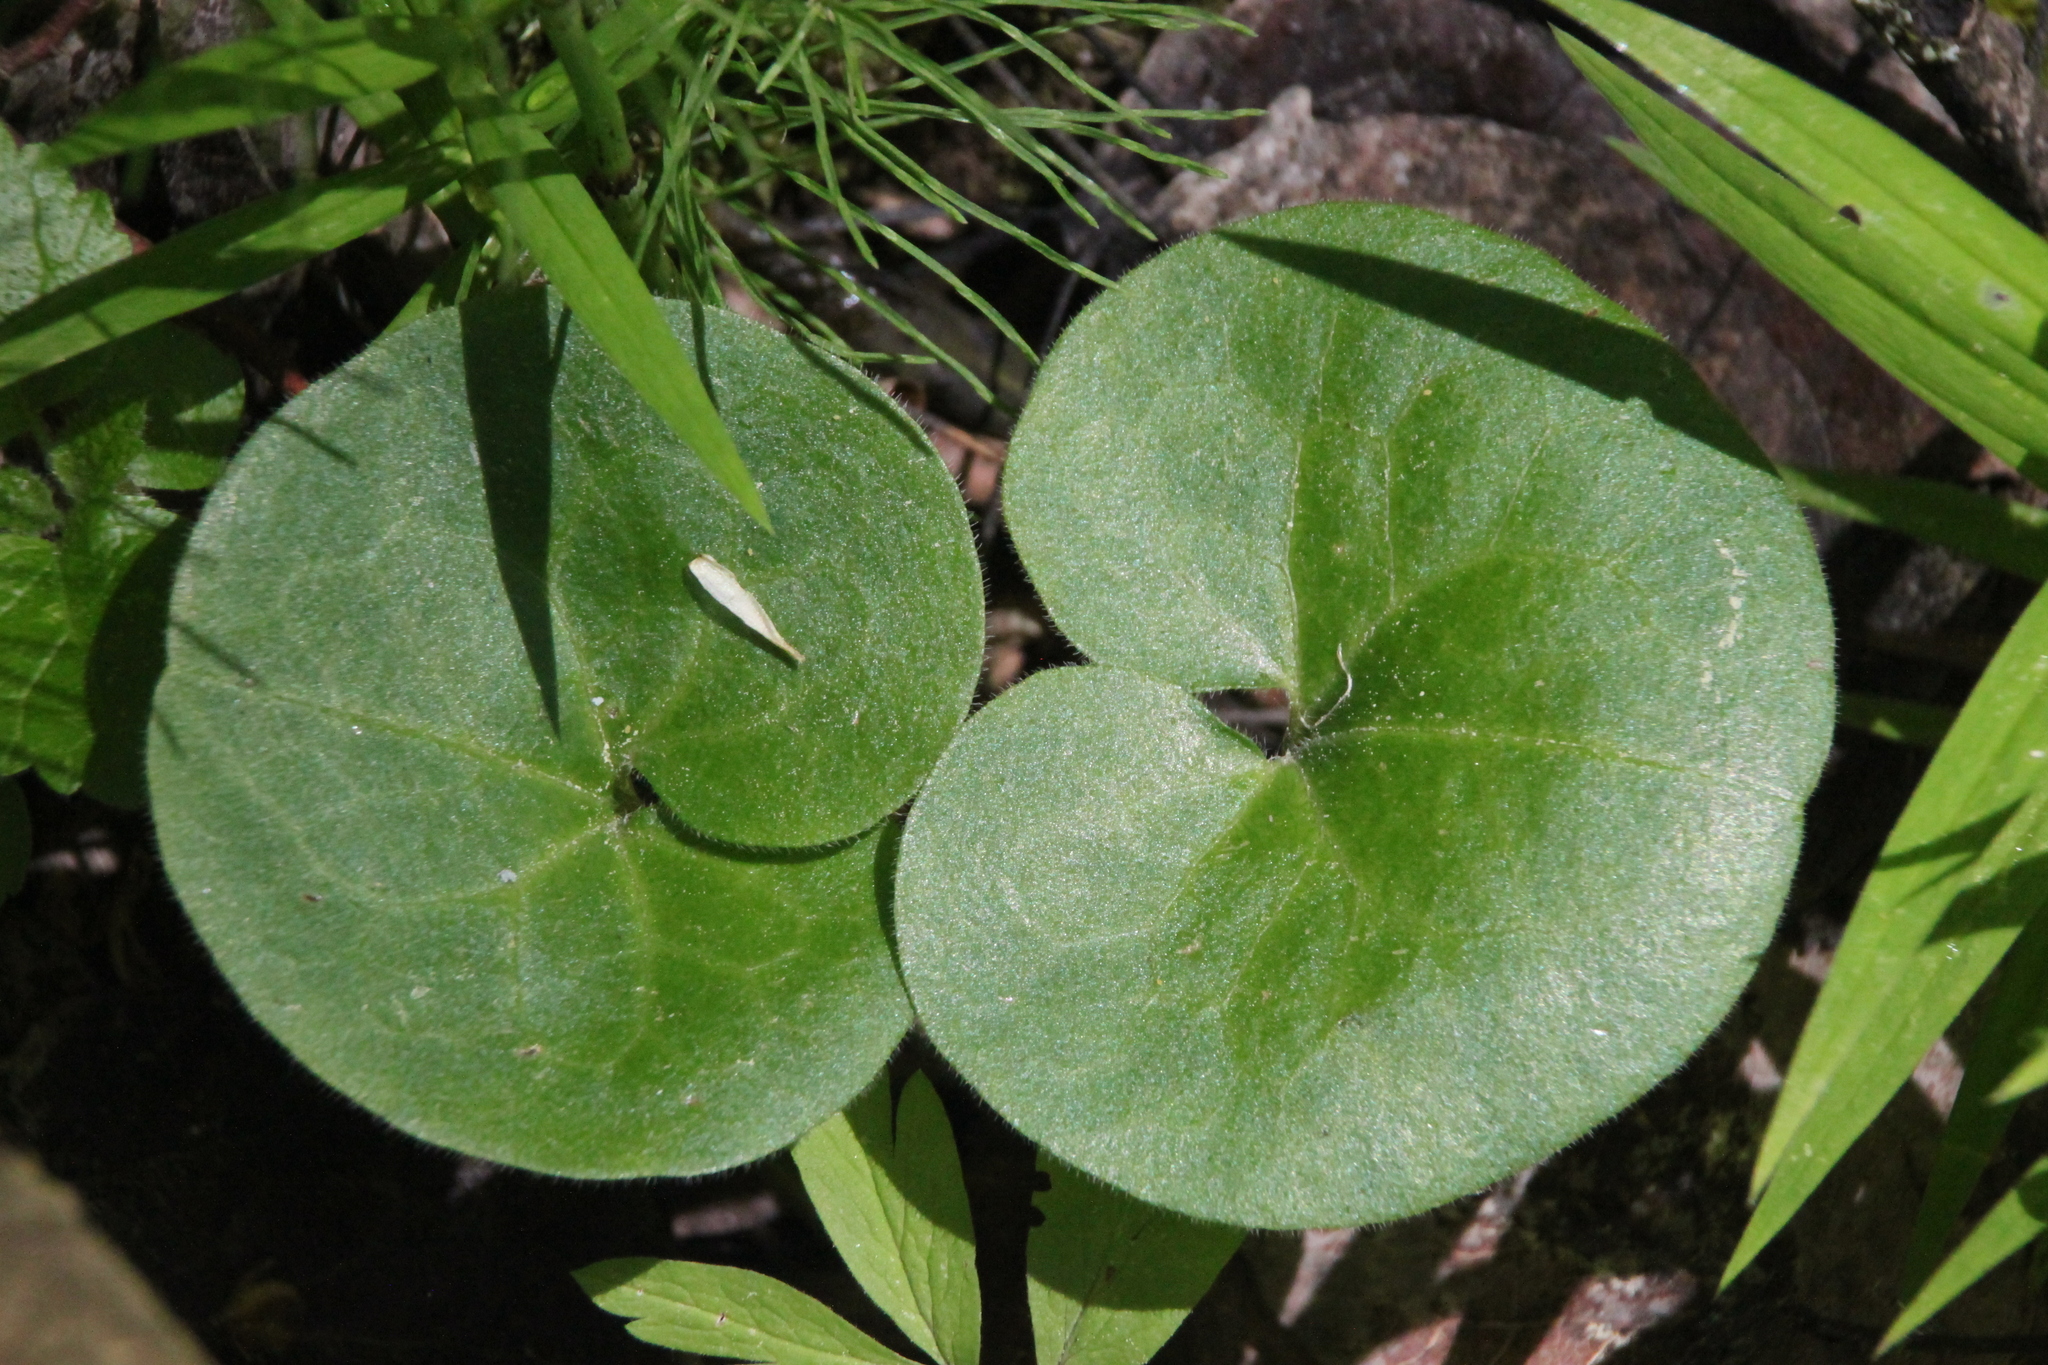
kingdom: Plantae
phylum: Tracheophyta
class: Magnoliopsida
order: Piperales
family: Aristolochiaceae
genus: Asarum
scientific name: Asarum europaeum
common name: Asarabacca
